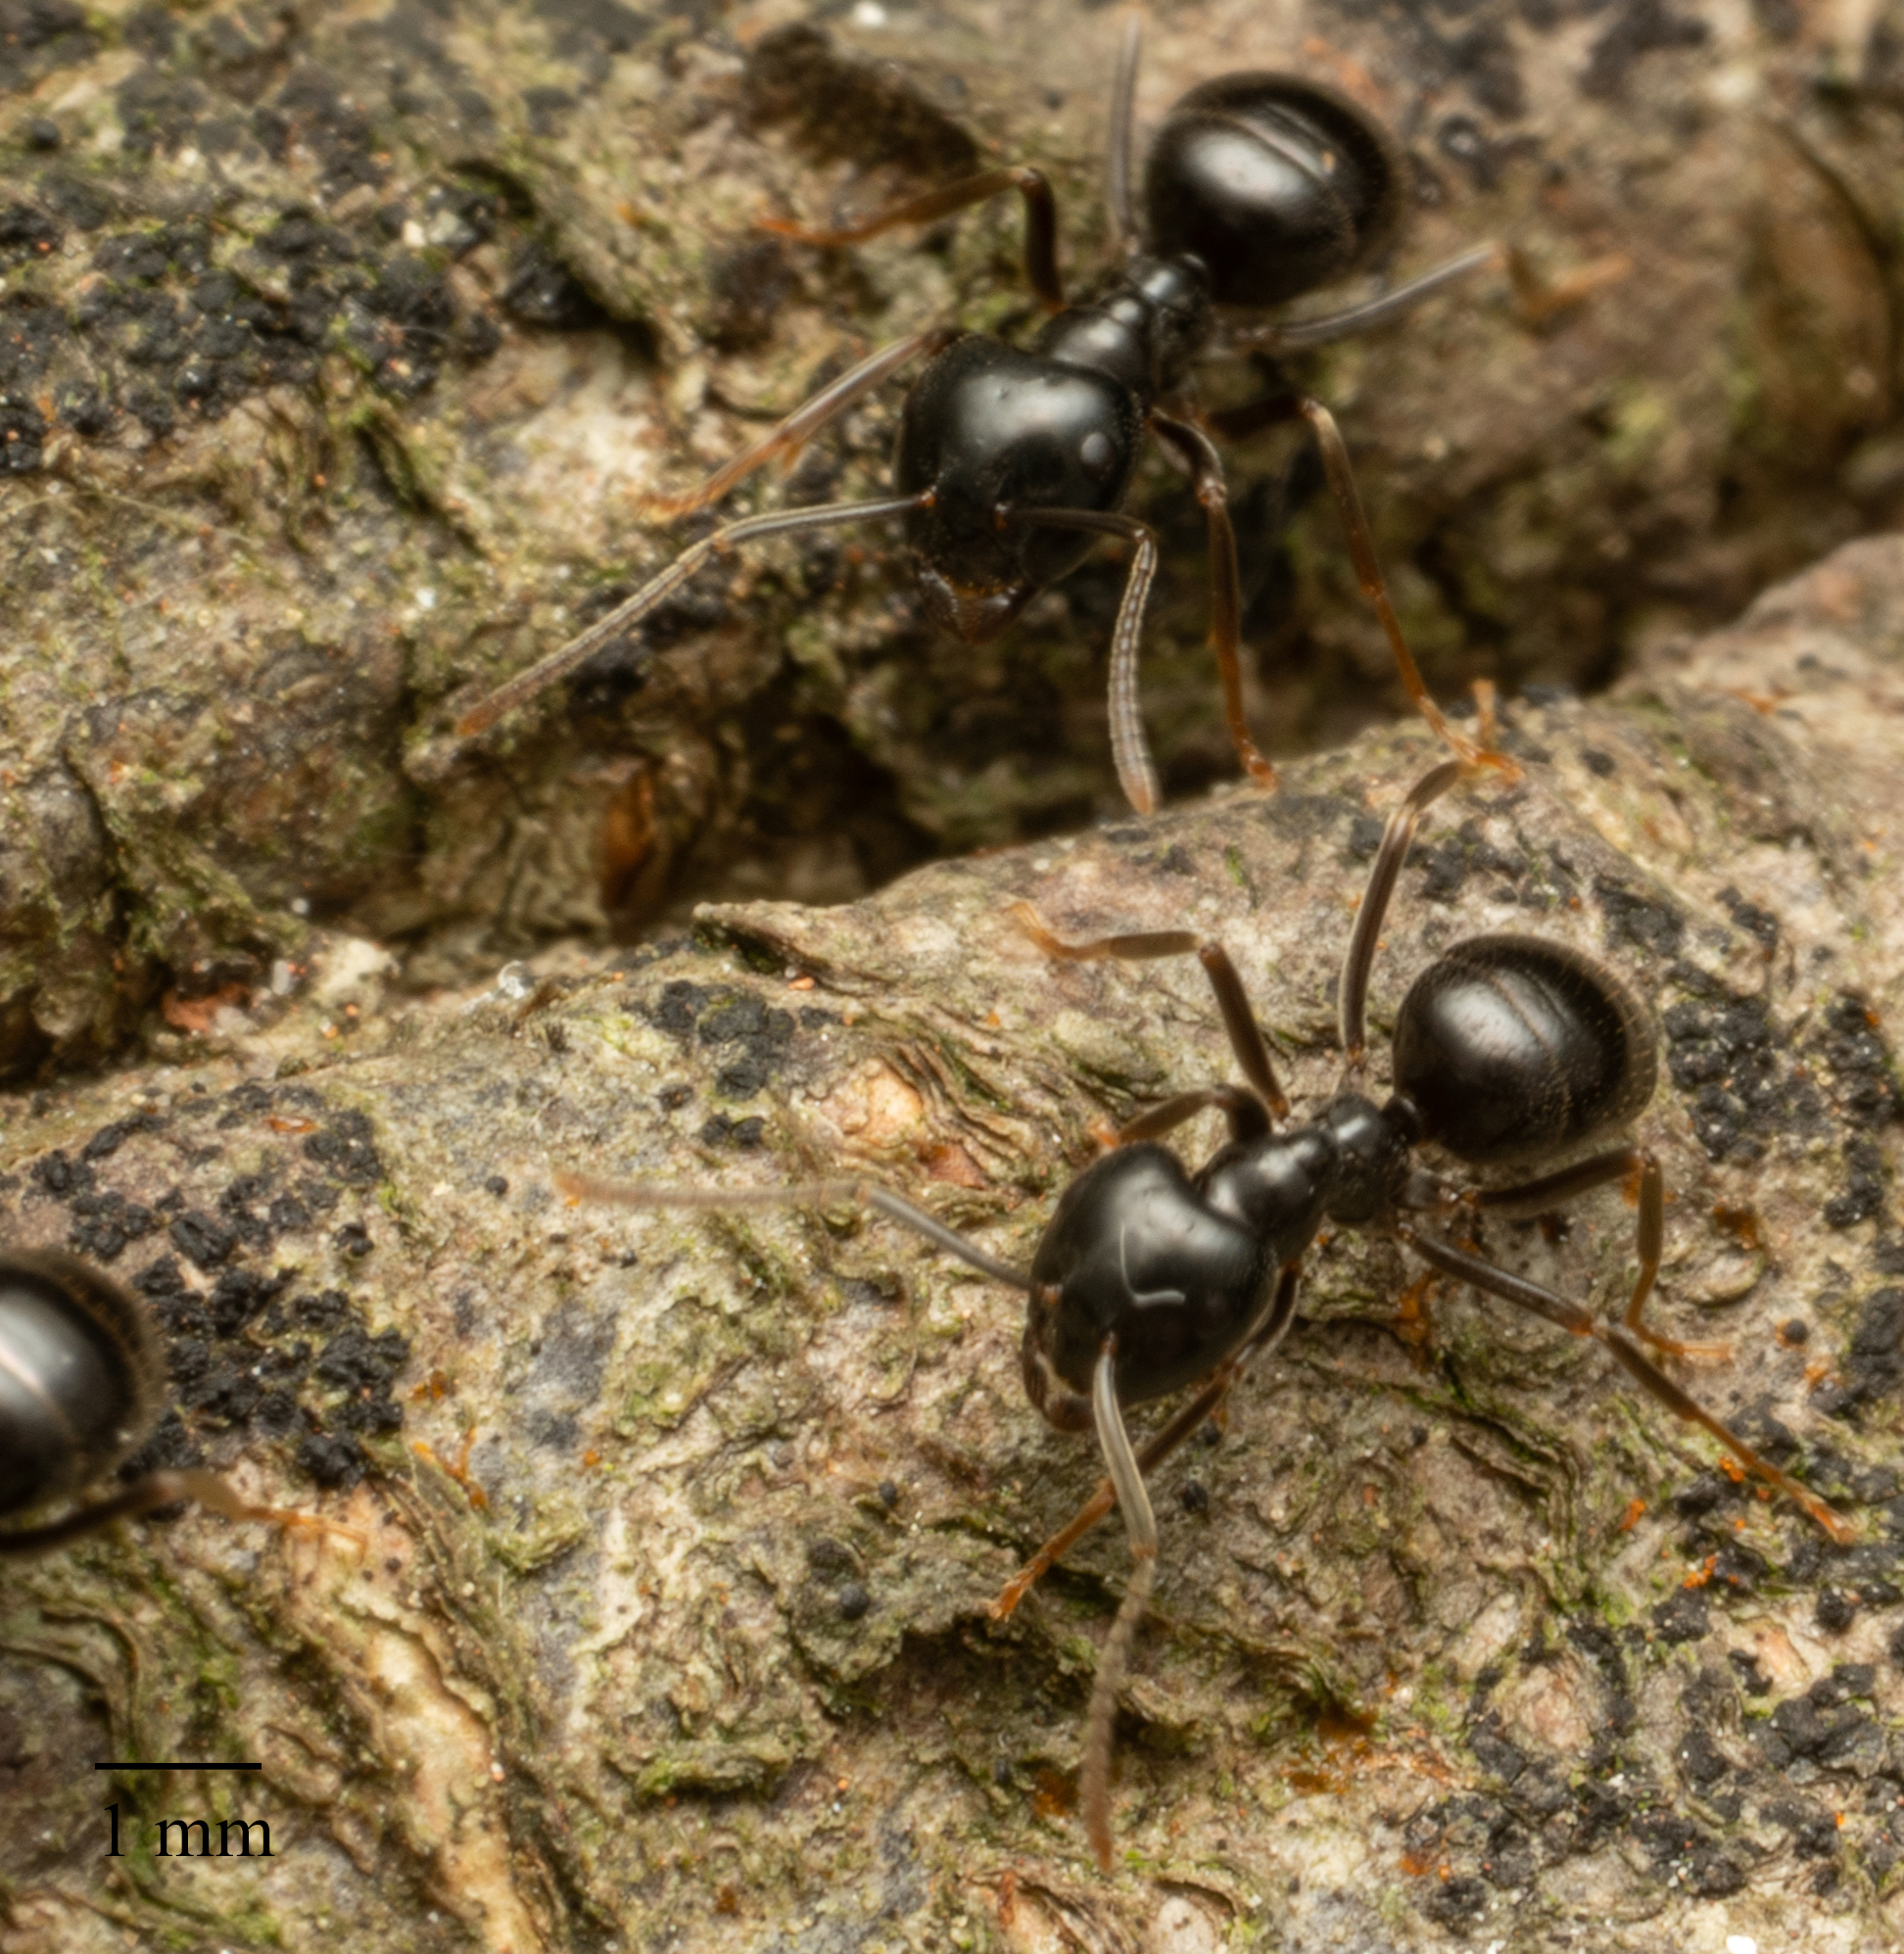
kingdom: Animalia
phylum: Arthropoda
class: Insecta
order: Hymenoptera
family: Formicidae
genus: Lasius
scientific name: Lasius fuliginosus
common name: Jet ant
